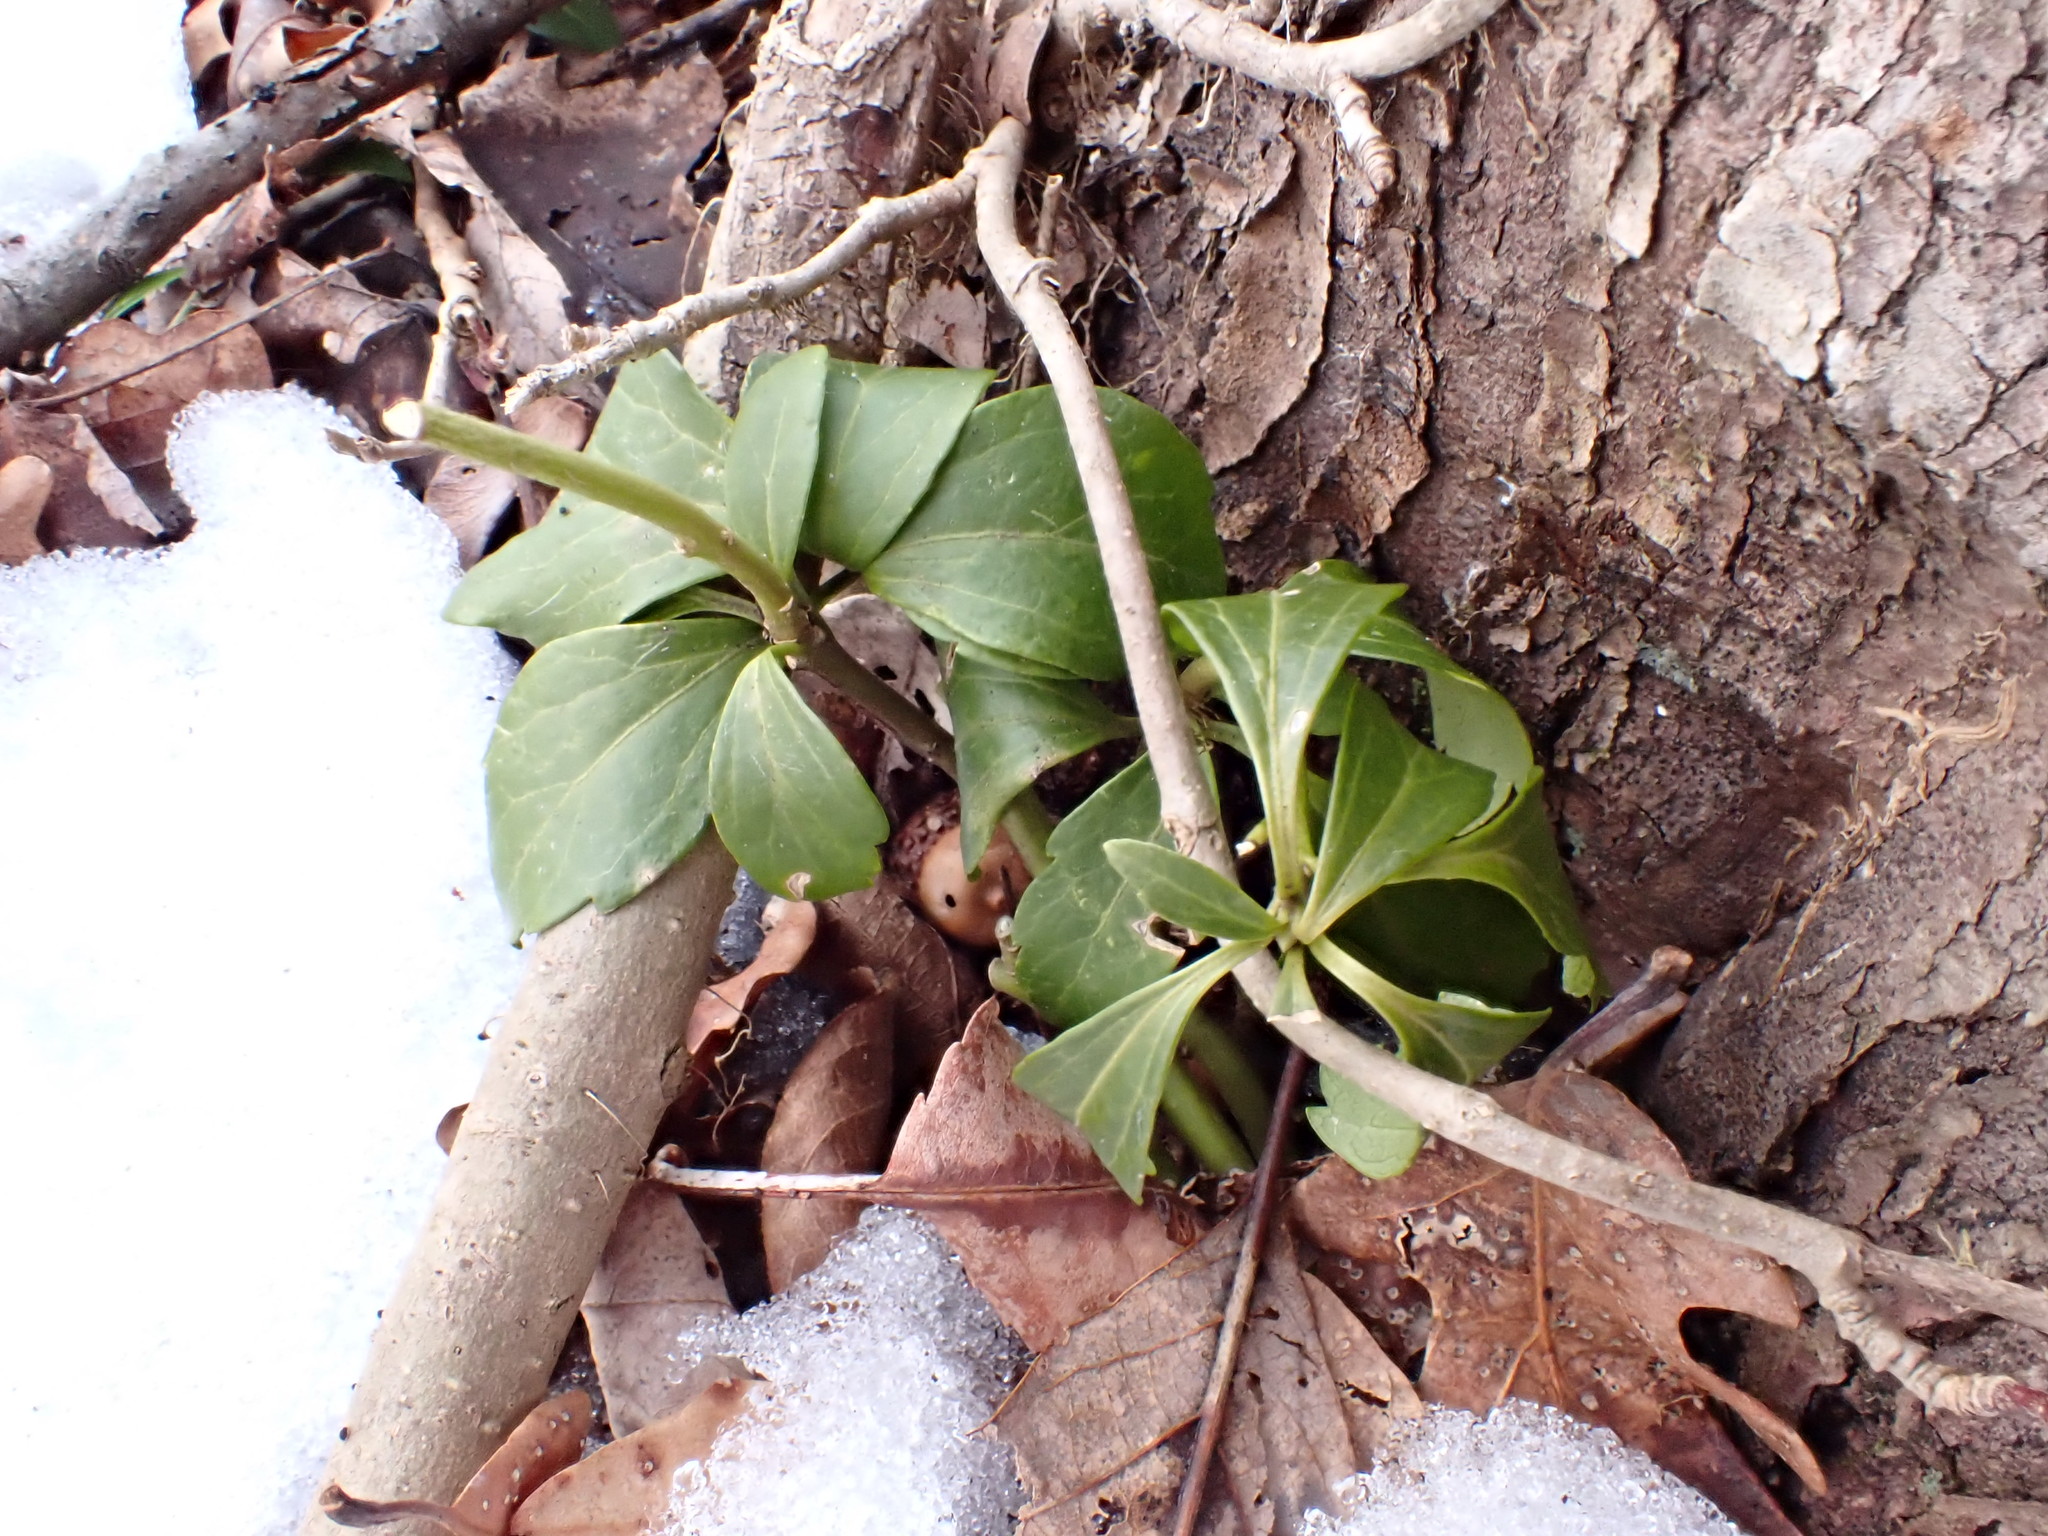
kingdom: Plantae
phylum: Tracheophyta
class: Magnoliopsida
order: Buxales
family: Buxaceae
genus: Pachysandra
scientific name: Pachysandra terminalis
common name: Japanese pachysandra
